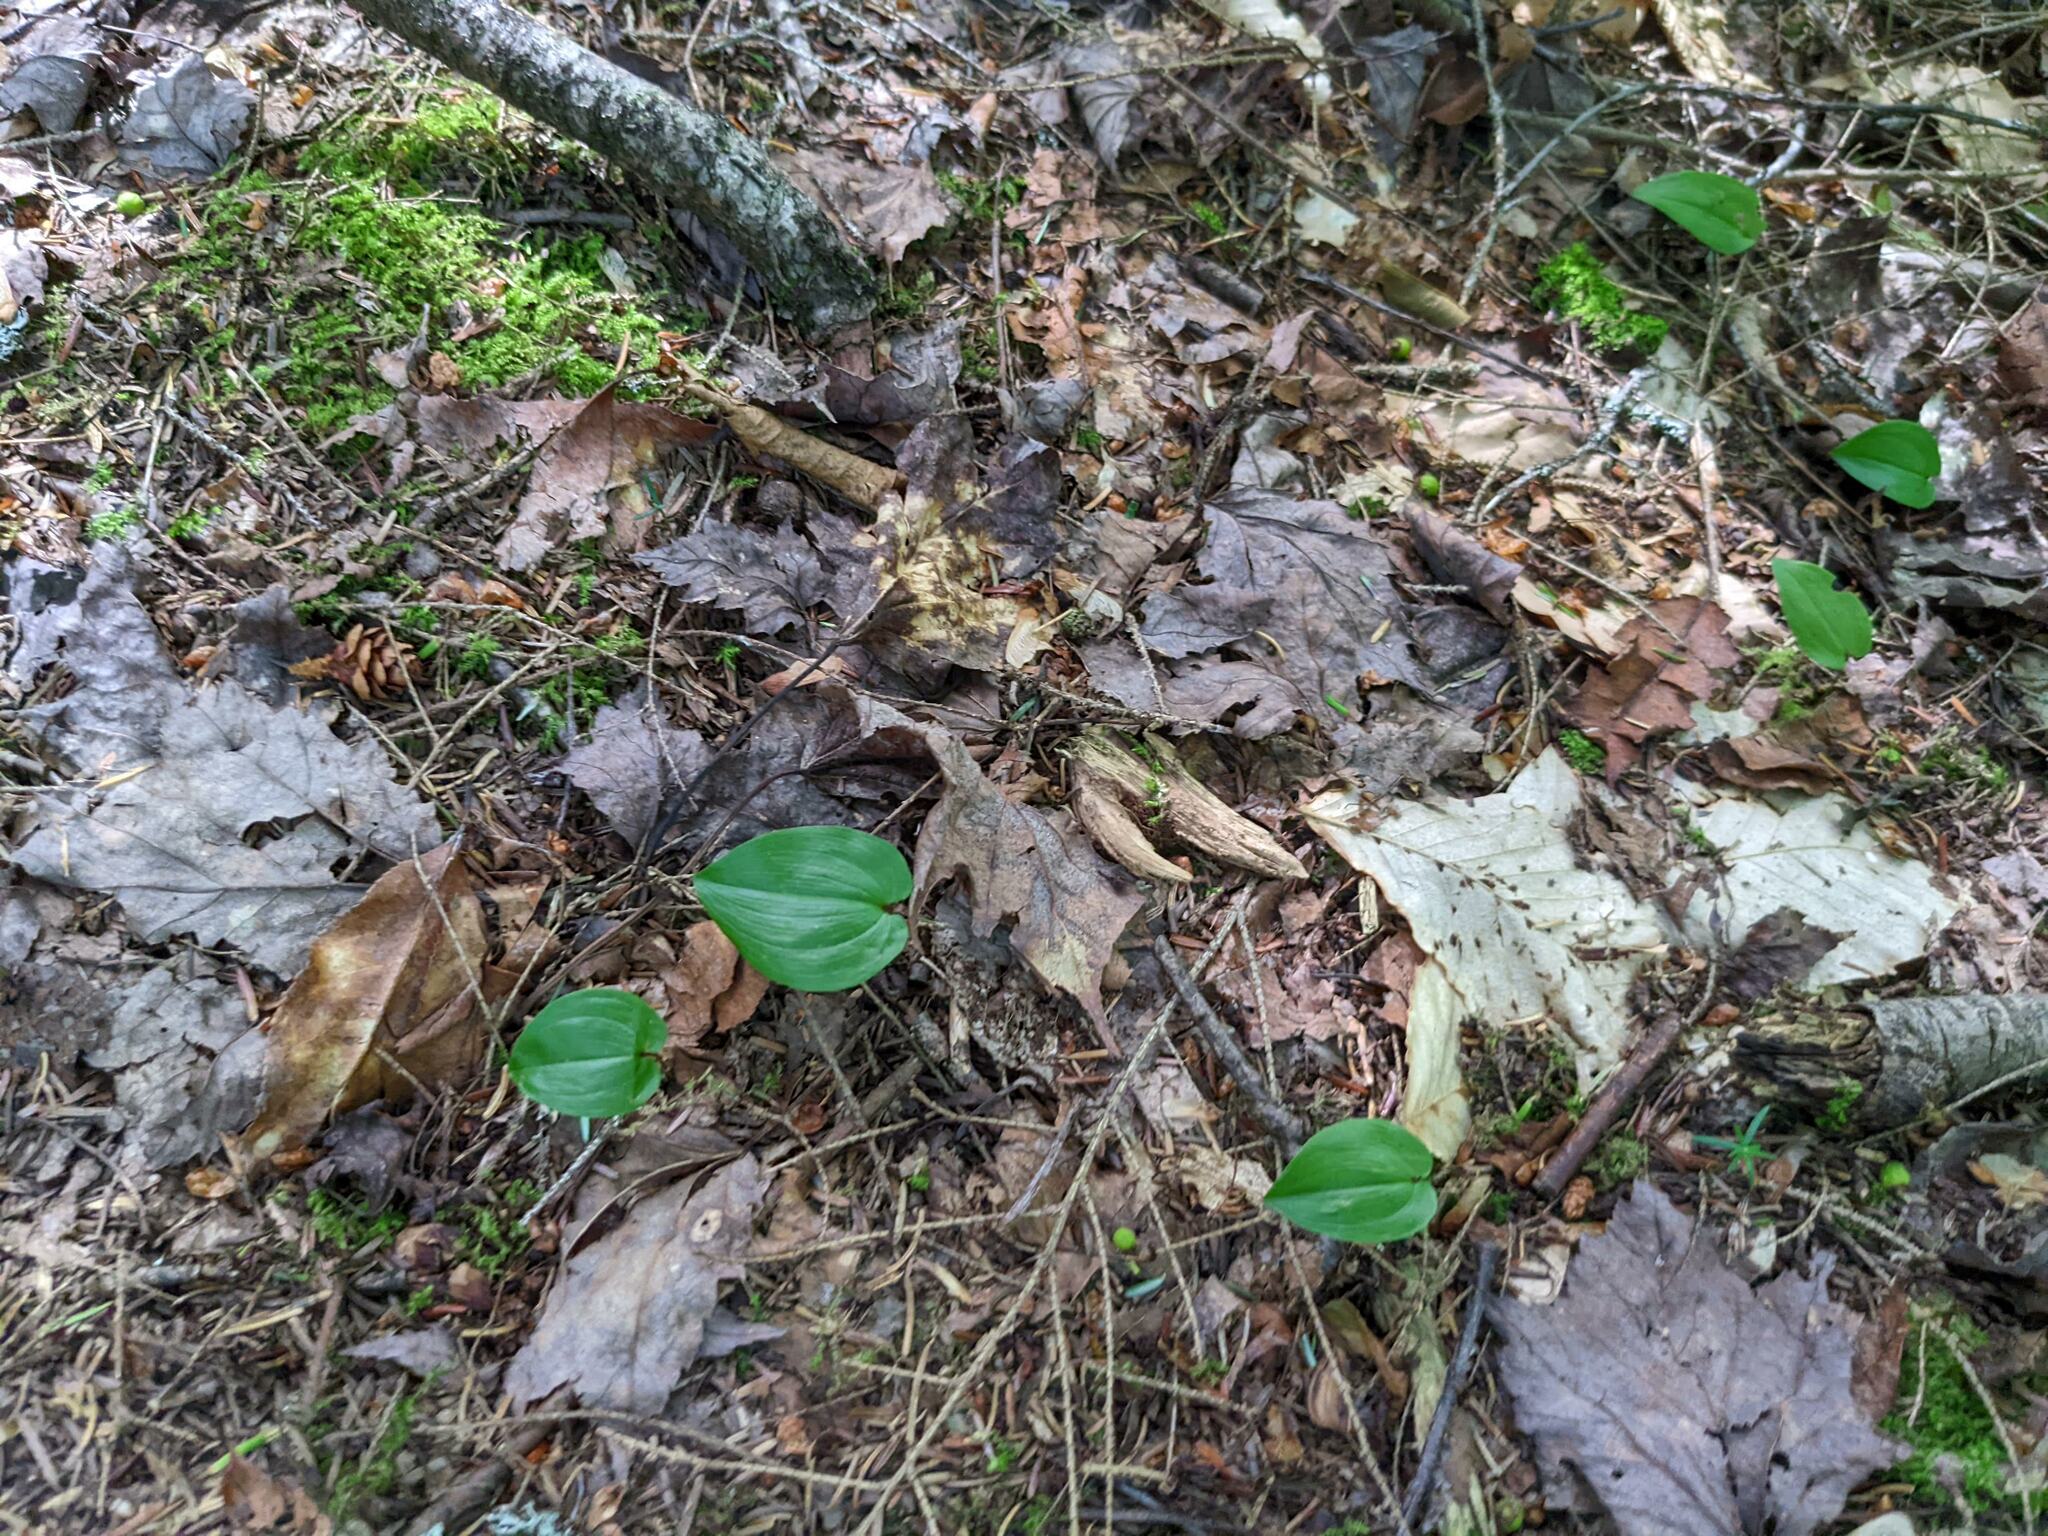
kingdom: Plantae
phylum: Tracheophyta
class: Liliopsida
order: Asparagales
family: Asparagaceae
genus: Maianthemum
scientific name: Maianthemum canadense
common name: False lily-of-the-valley
